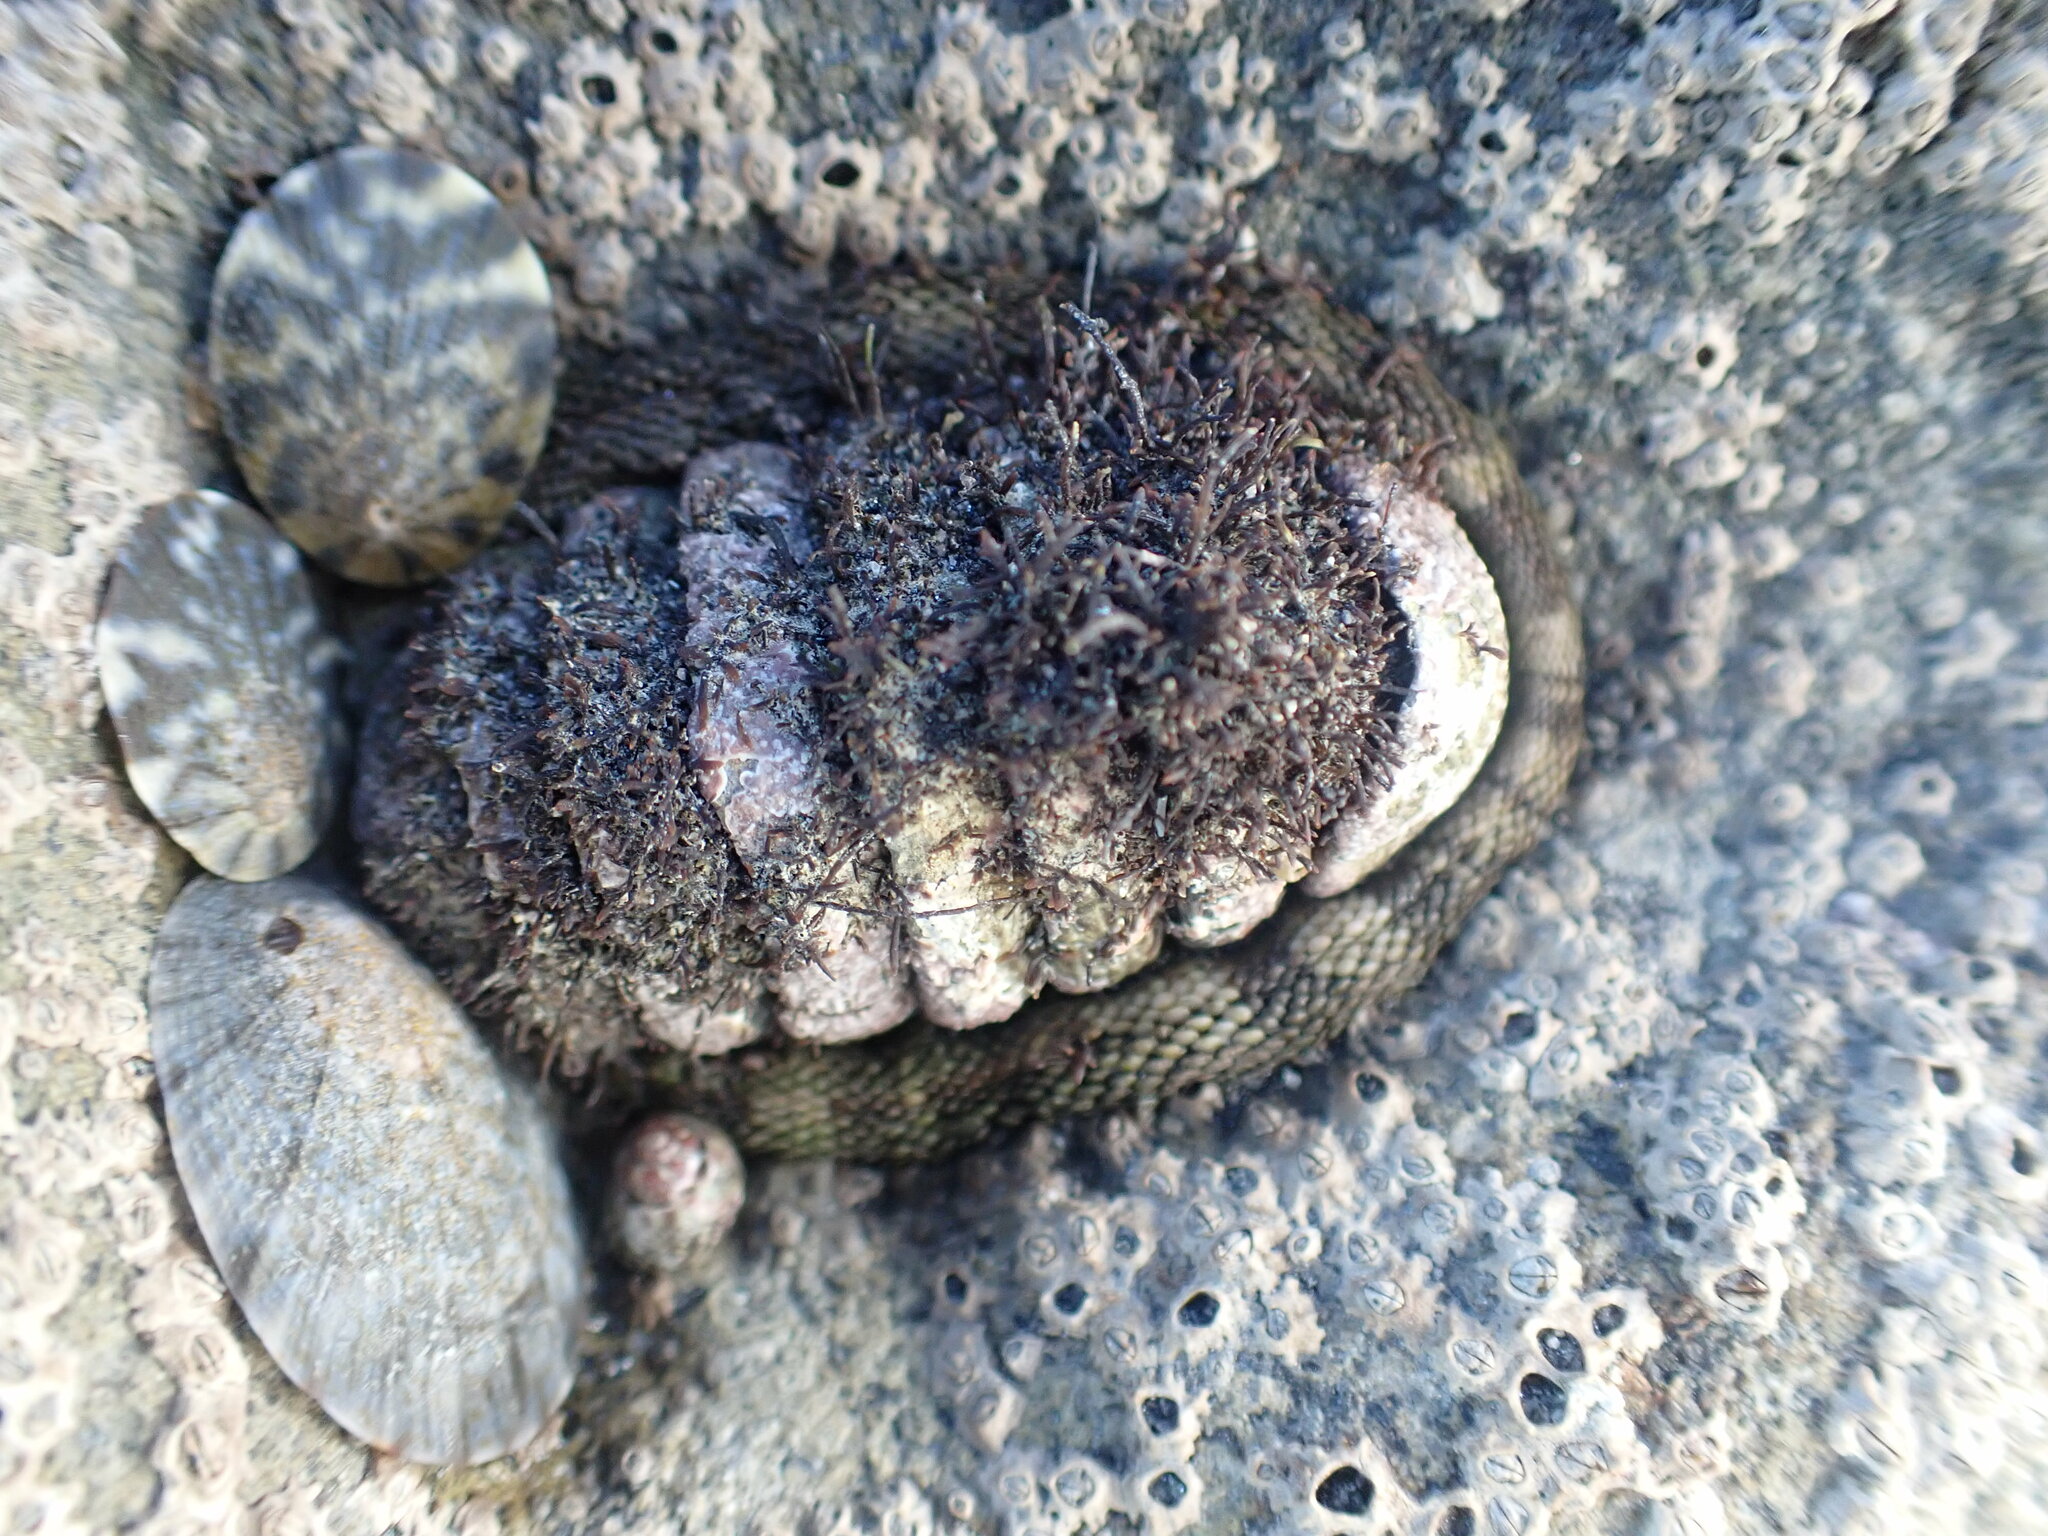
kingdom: Animalia
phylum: Mollusca
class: Polyplacophora
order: Chitonida
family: Chitonidae
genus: Sypharochiton
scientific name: Sypharochiton pelliserpentis
